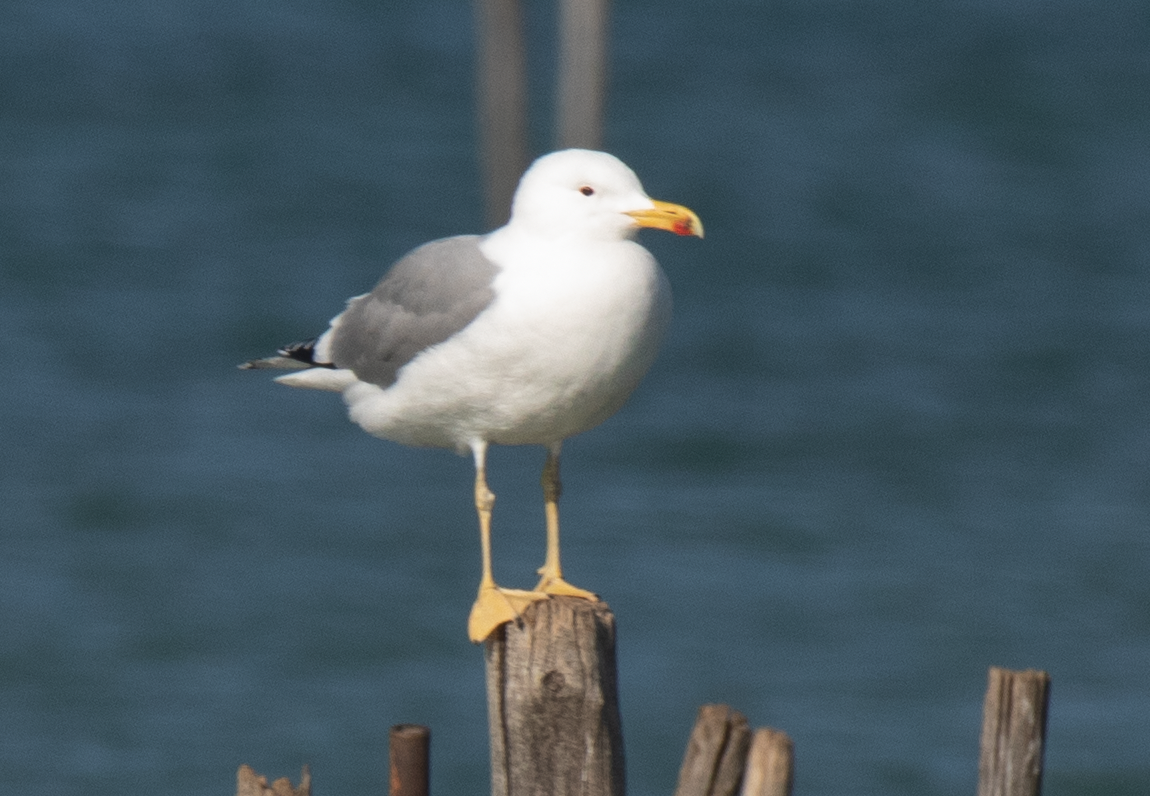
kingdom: Animalia
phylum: Chordata
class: Aves
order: Charadriiformes
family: Laridae
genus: Larus
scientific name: Larus michahellis
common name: Yellow-legged gull
